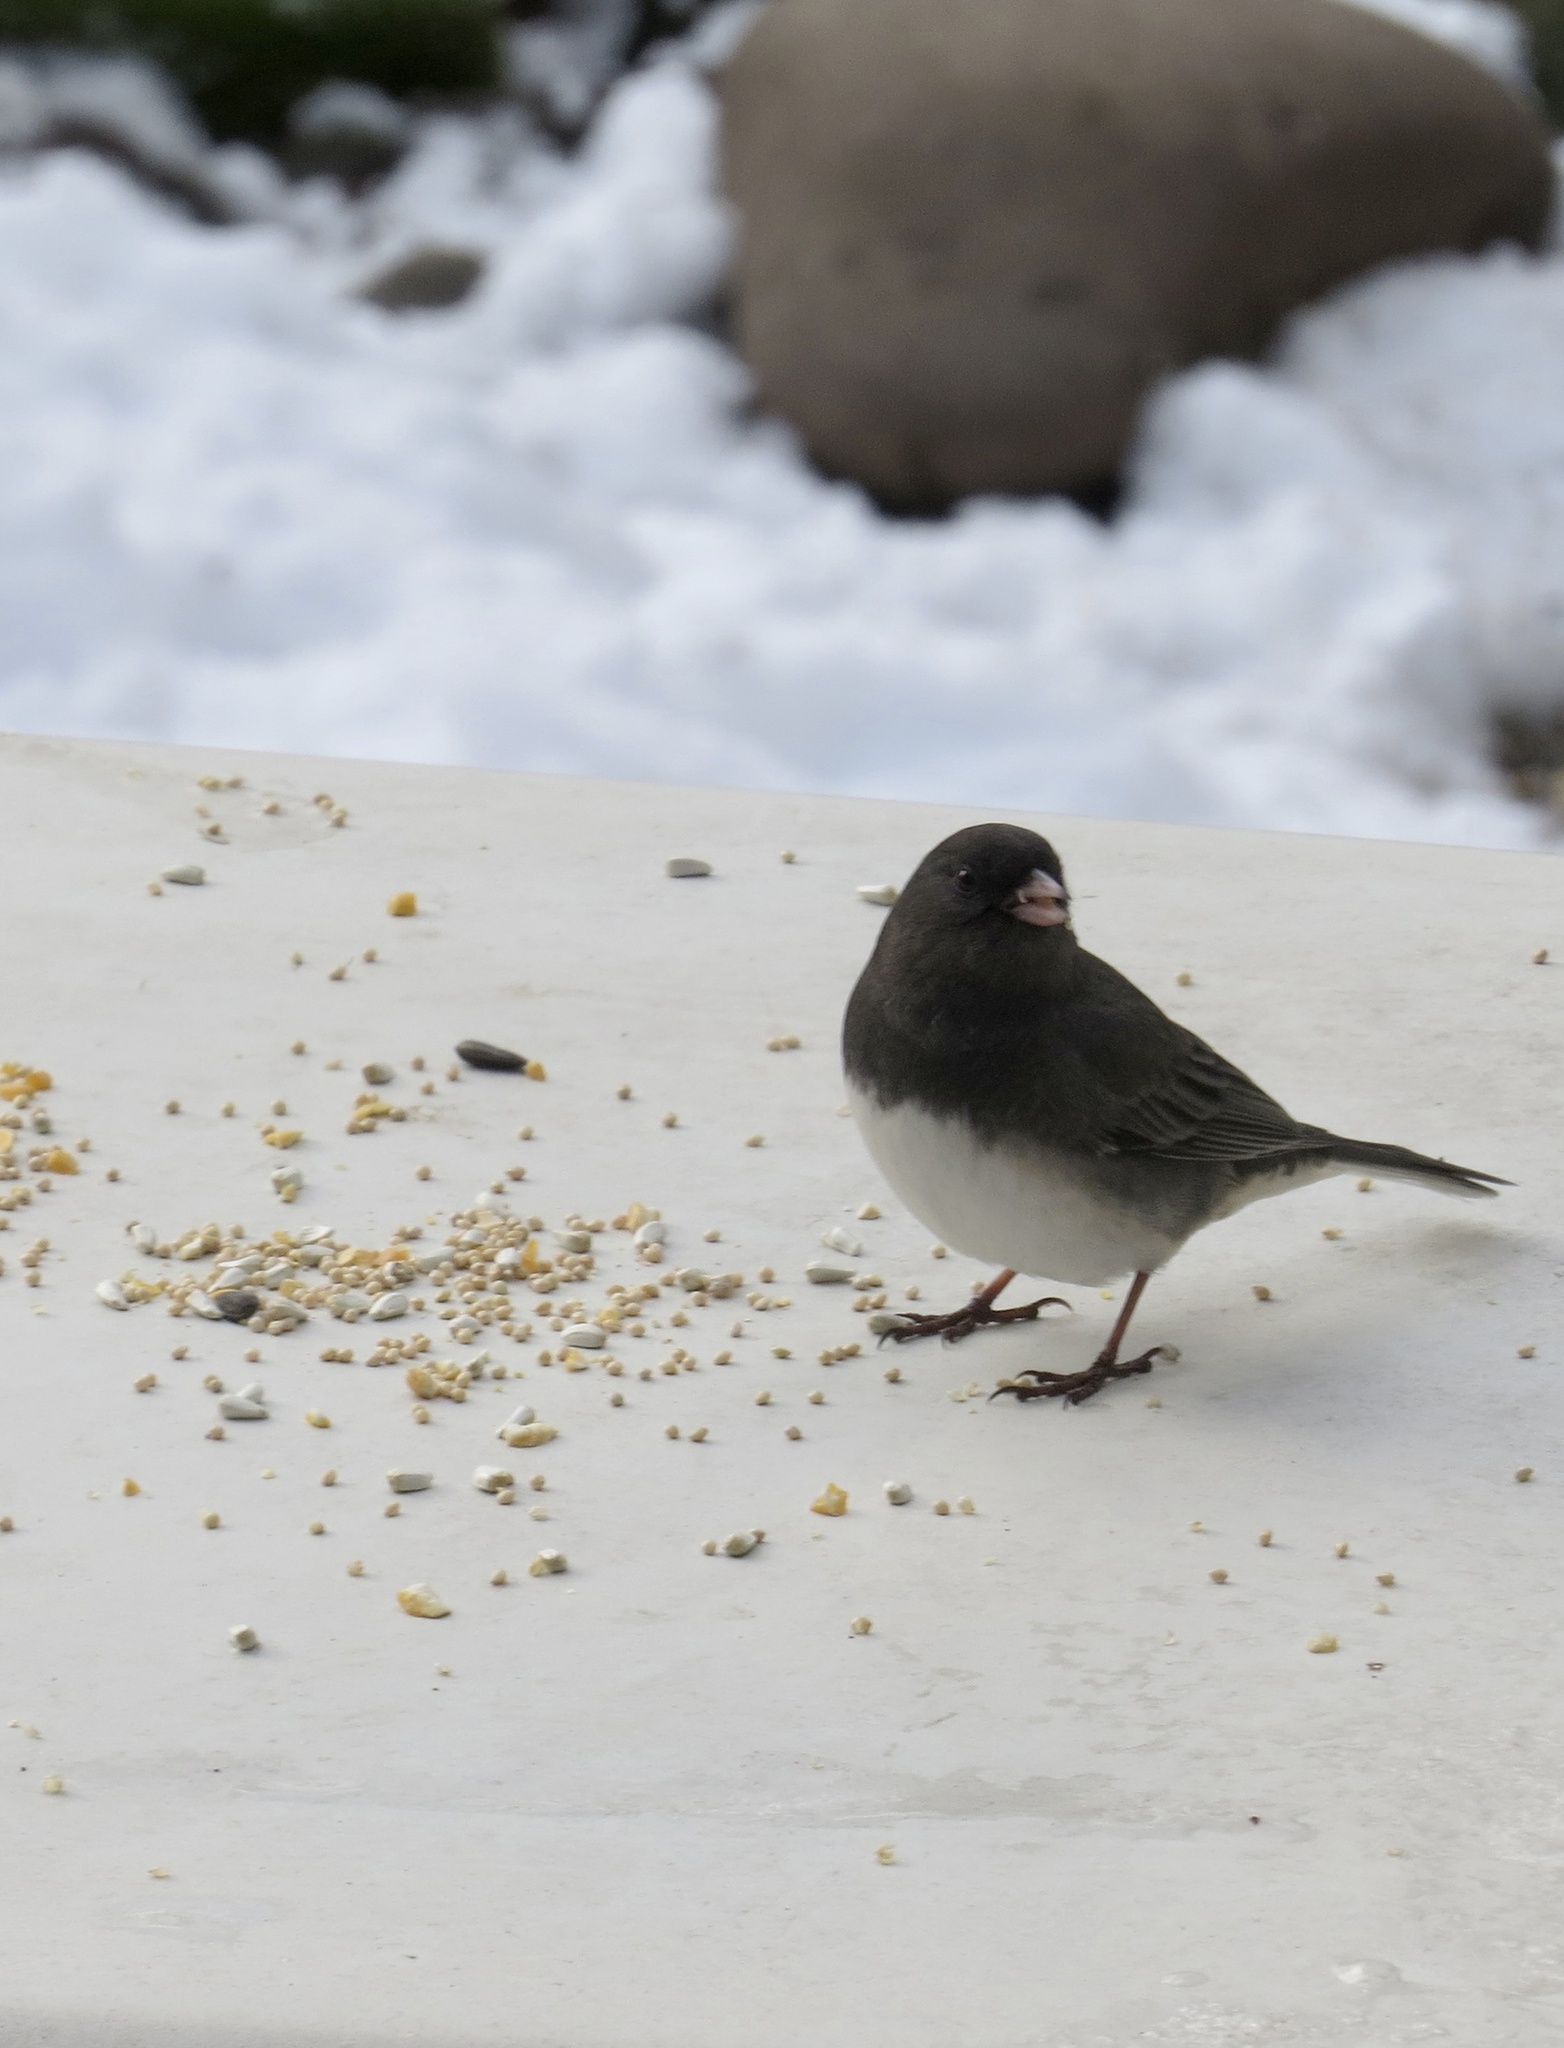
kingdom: Animalia
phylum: Chordata
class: Aves
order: Passeriformes
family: Passerellidae
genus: Junco
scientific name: Junco hyemalis
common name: Dark-eyed junco
